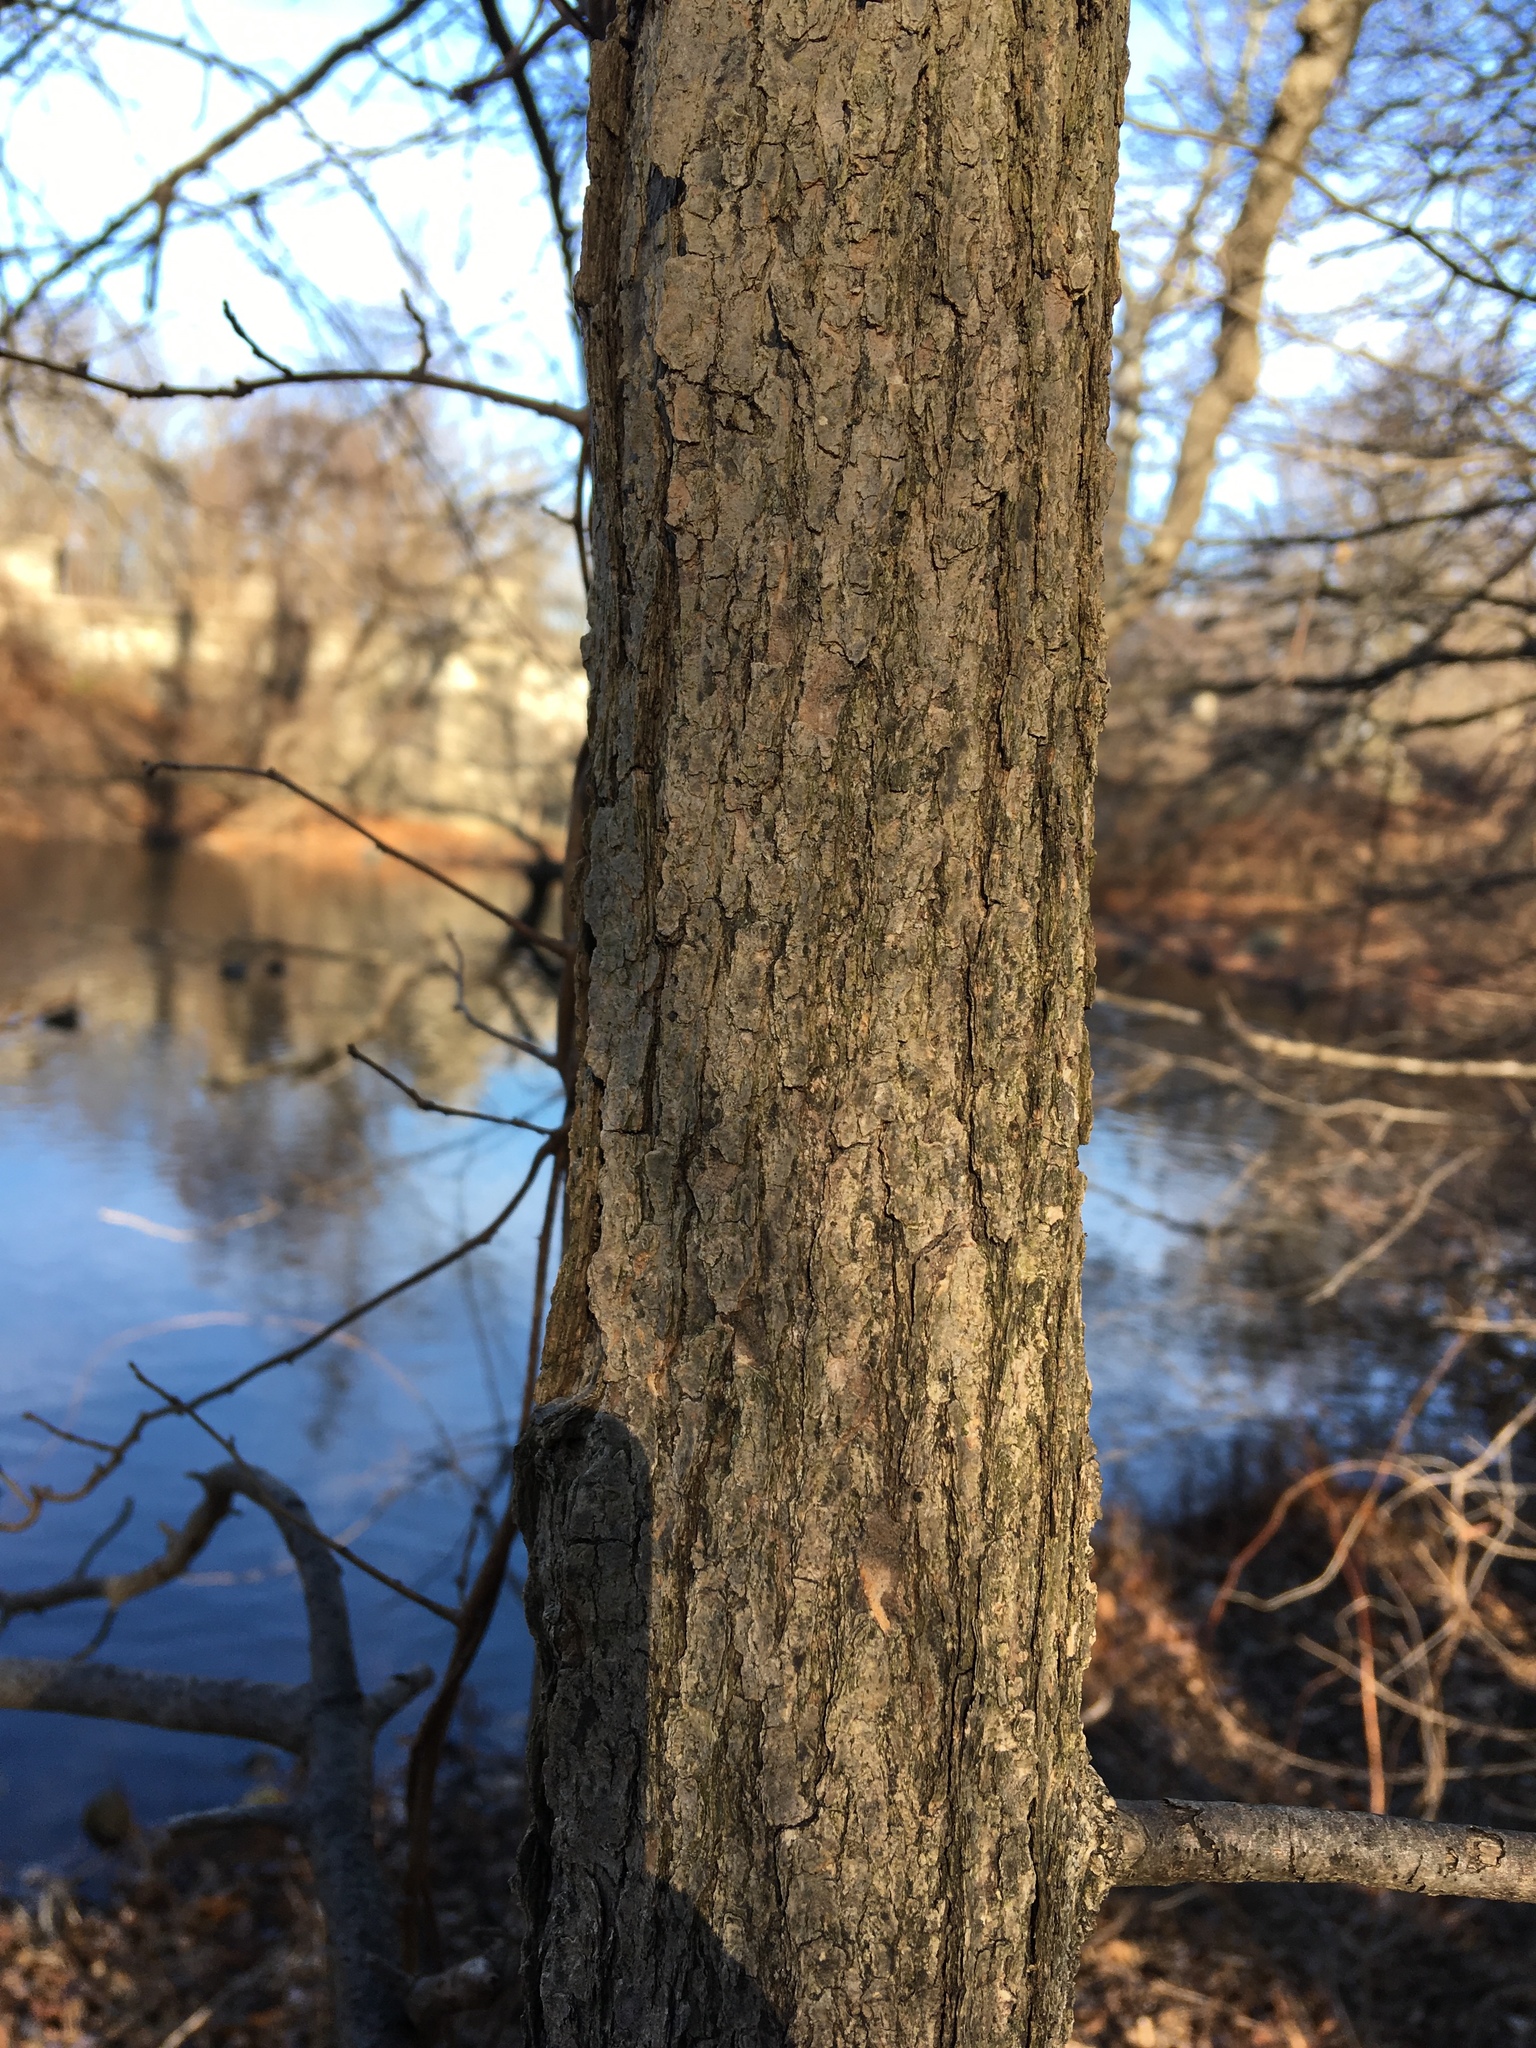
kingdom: Plantae
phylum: Tracheophyta
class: Magnoliopsida
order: Cornales
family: Nyssaceae
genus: Nyssa
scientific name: Nyssa sylvatica
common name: Black tupelo
